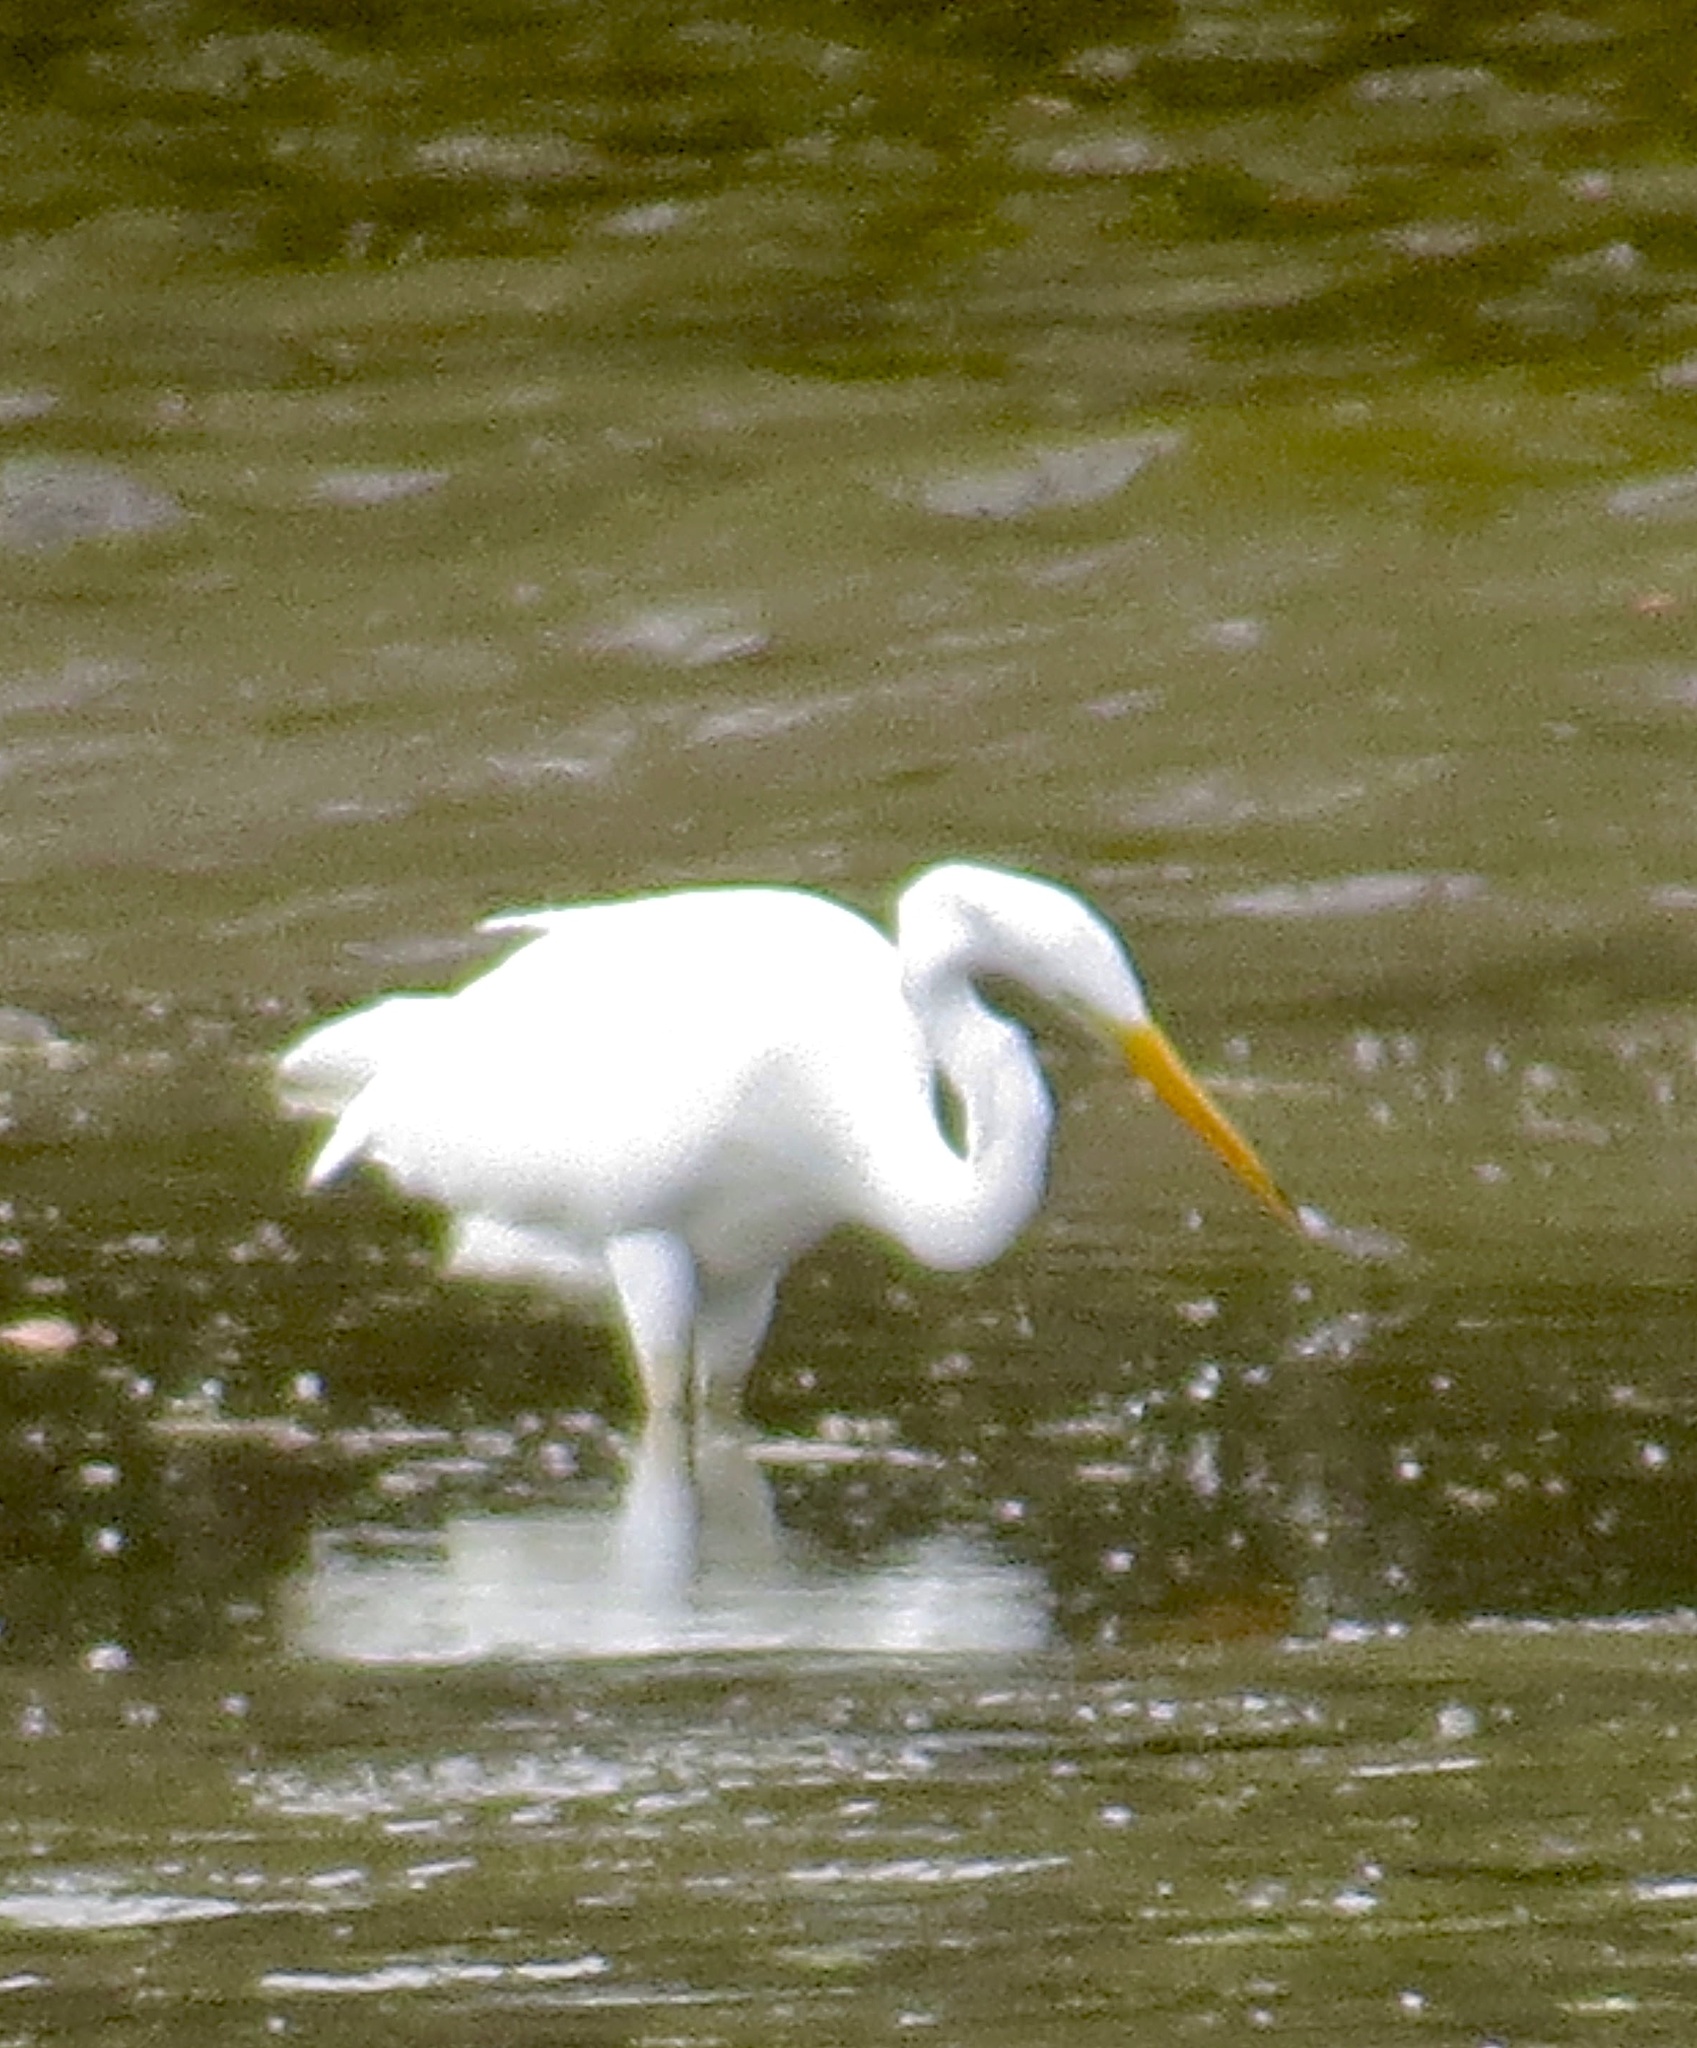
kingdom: Animalia
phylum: Chordata
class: Aves
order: Pelecaniformes
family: Ardeidae
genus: Ardea
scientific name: Ardea alba
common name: Great egret
